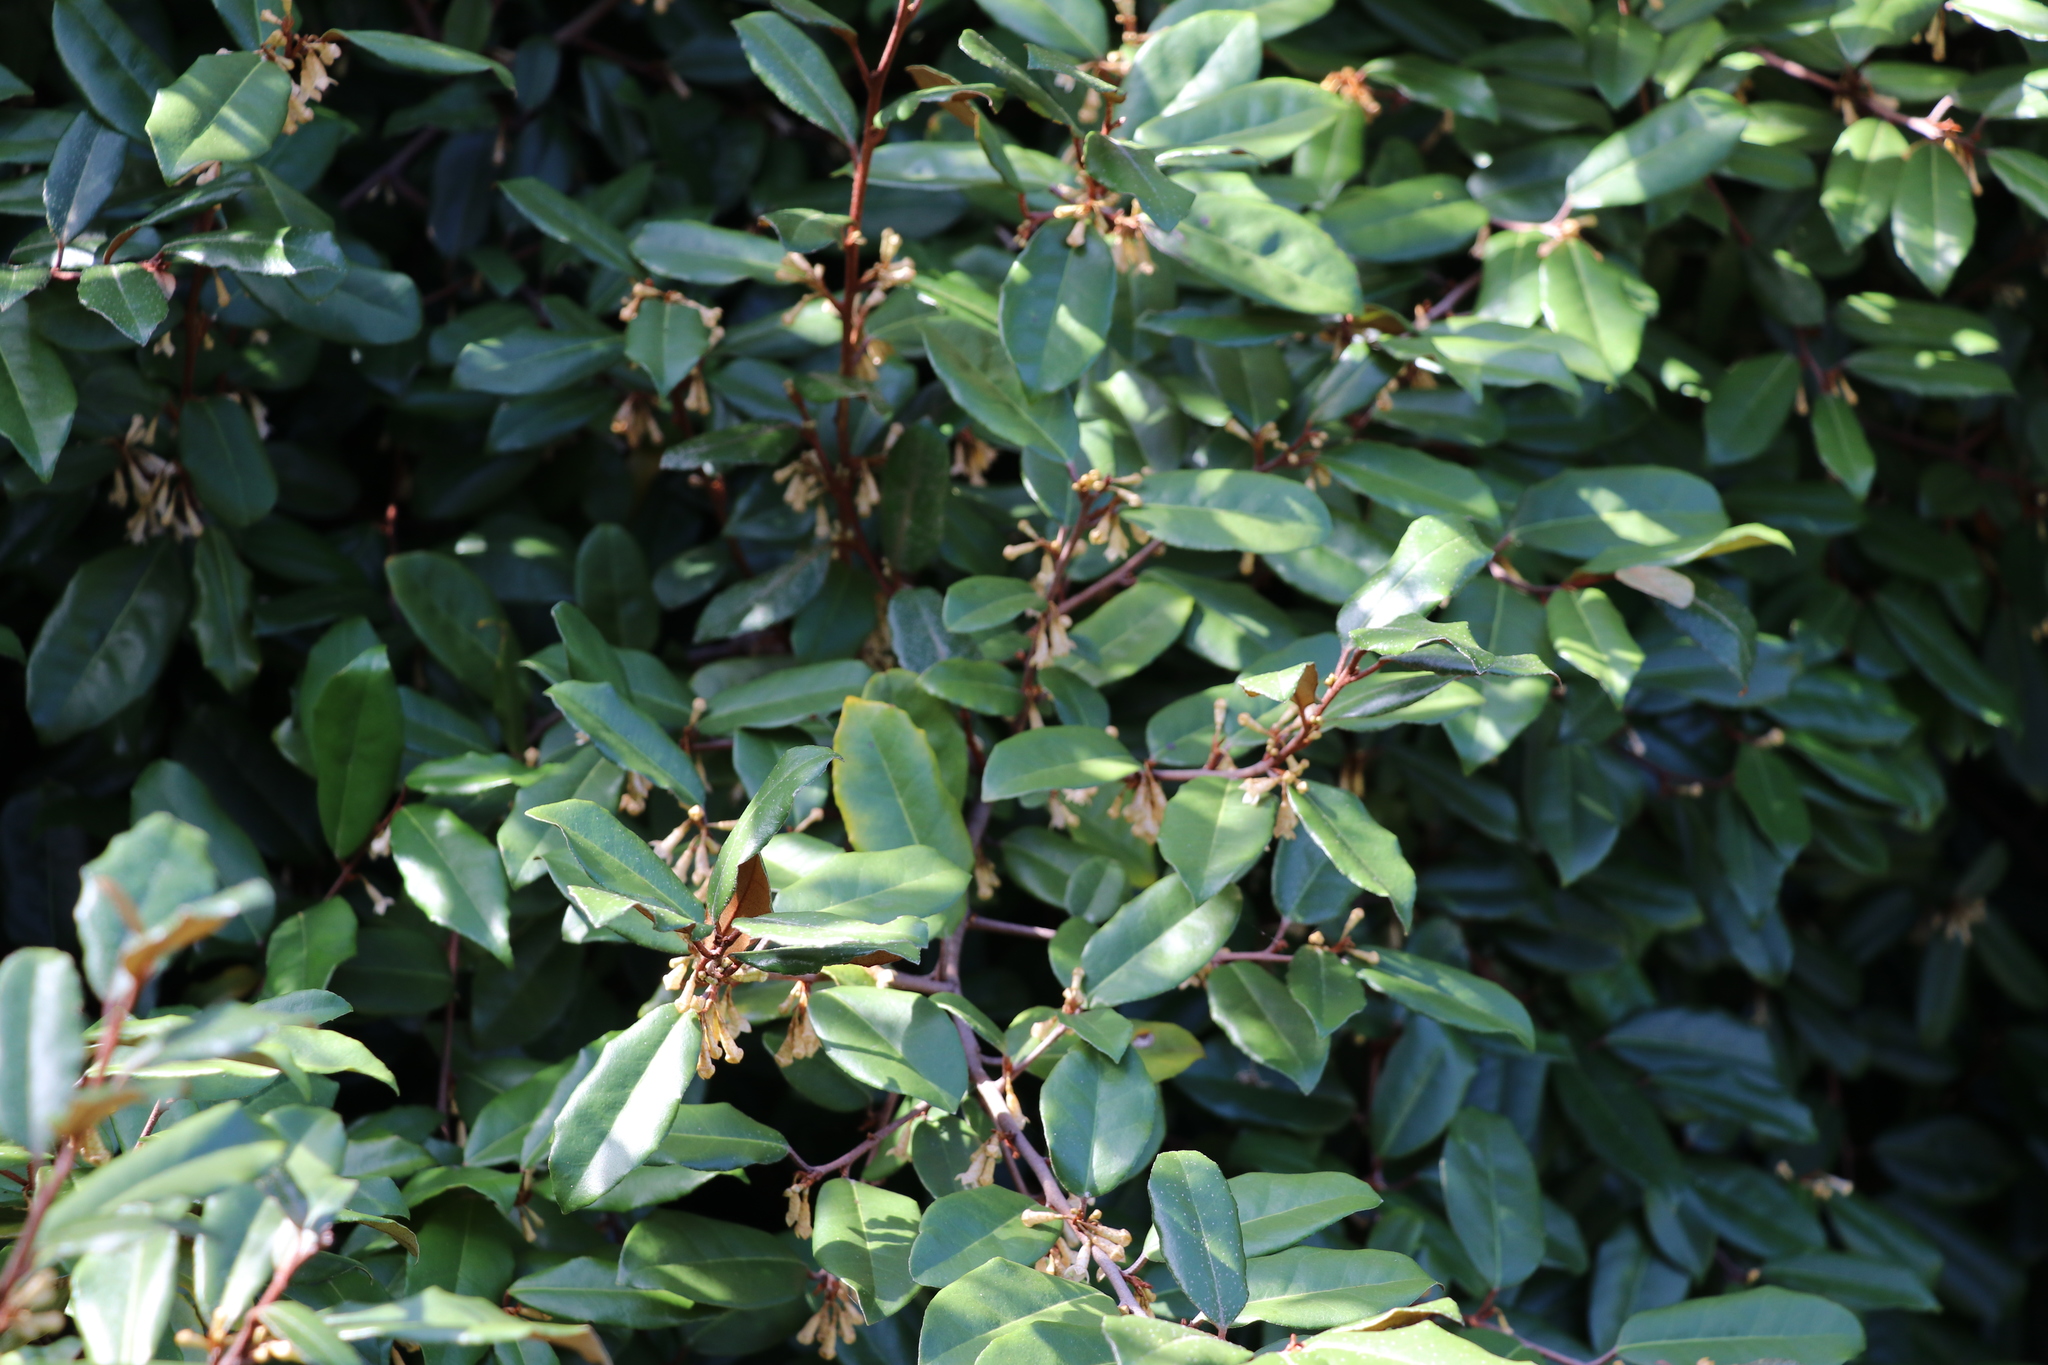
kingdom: Plantae
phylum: Tracheophyta
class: Magnoliopsida
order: Rosales
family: Elaeagnaceae
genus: Elaeagnus
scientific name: Elaeagnus reflexa
